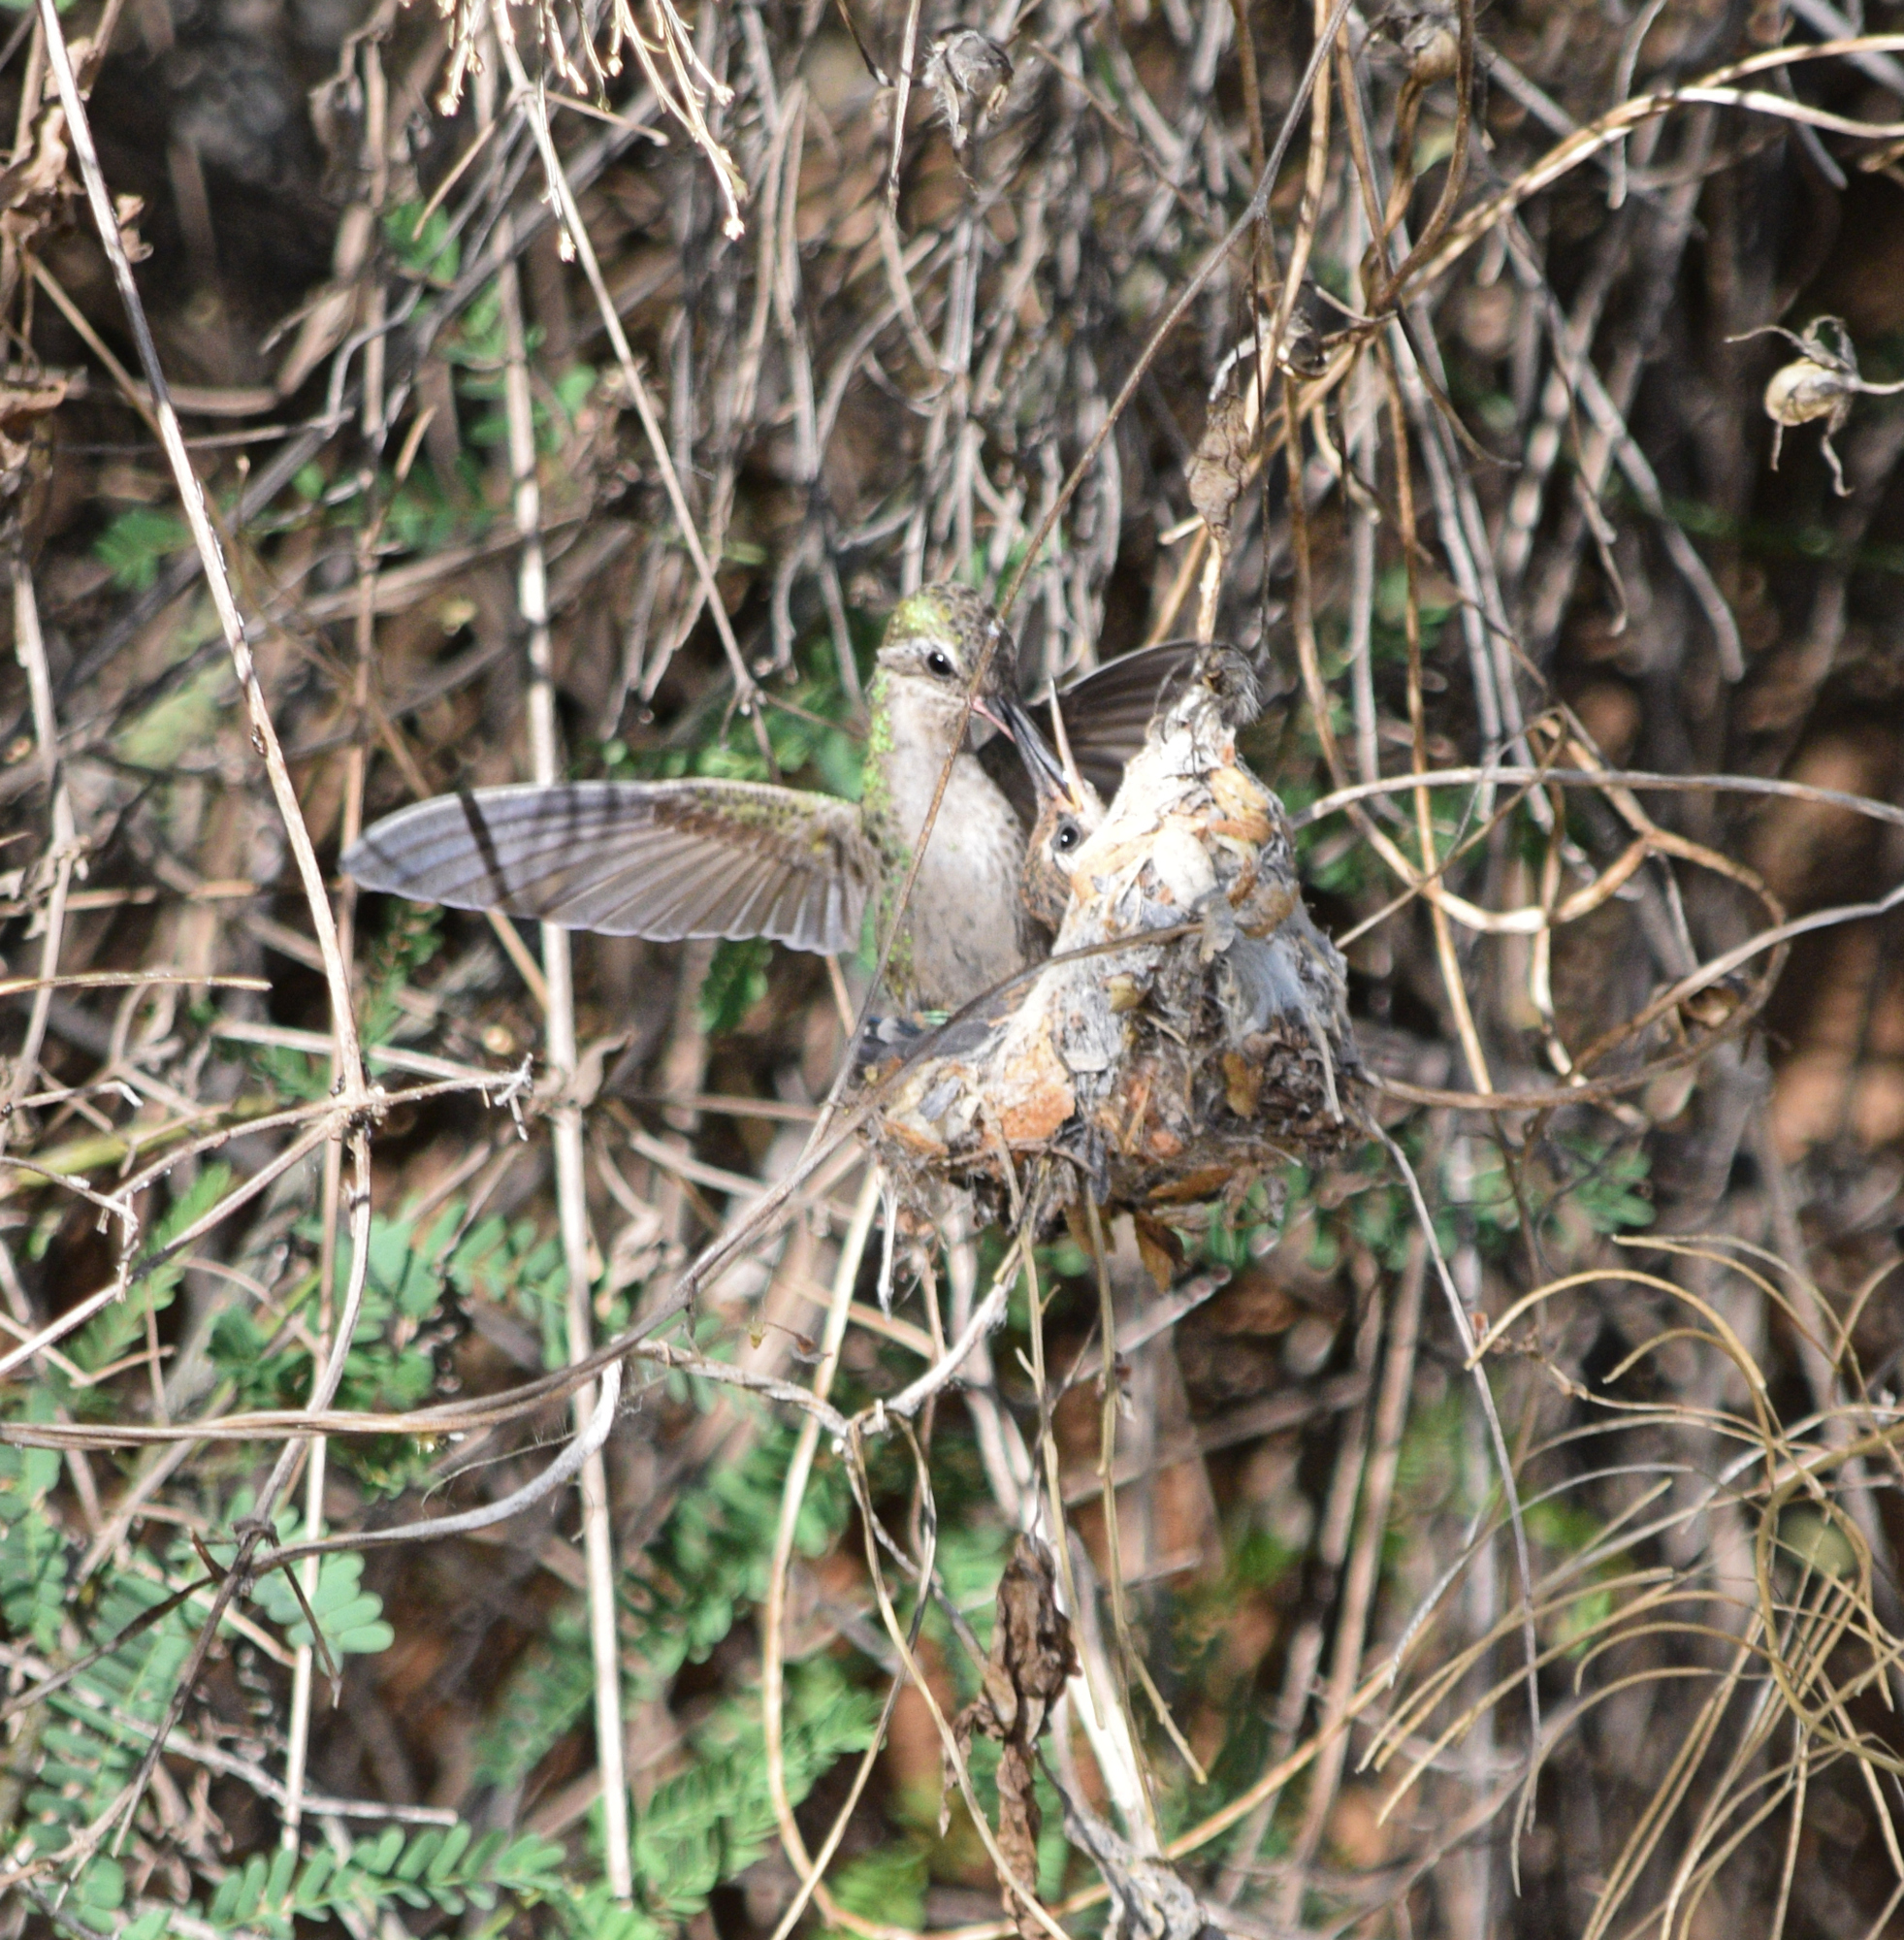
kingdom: Animalia
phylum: Chordata
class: Aves
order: Apodiformes
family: Trochilidae
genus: Cynanthus
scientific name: Cynanthus latirostris
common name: Broad-billed hummingbird
